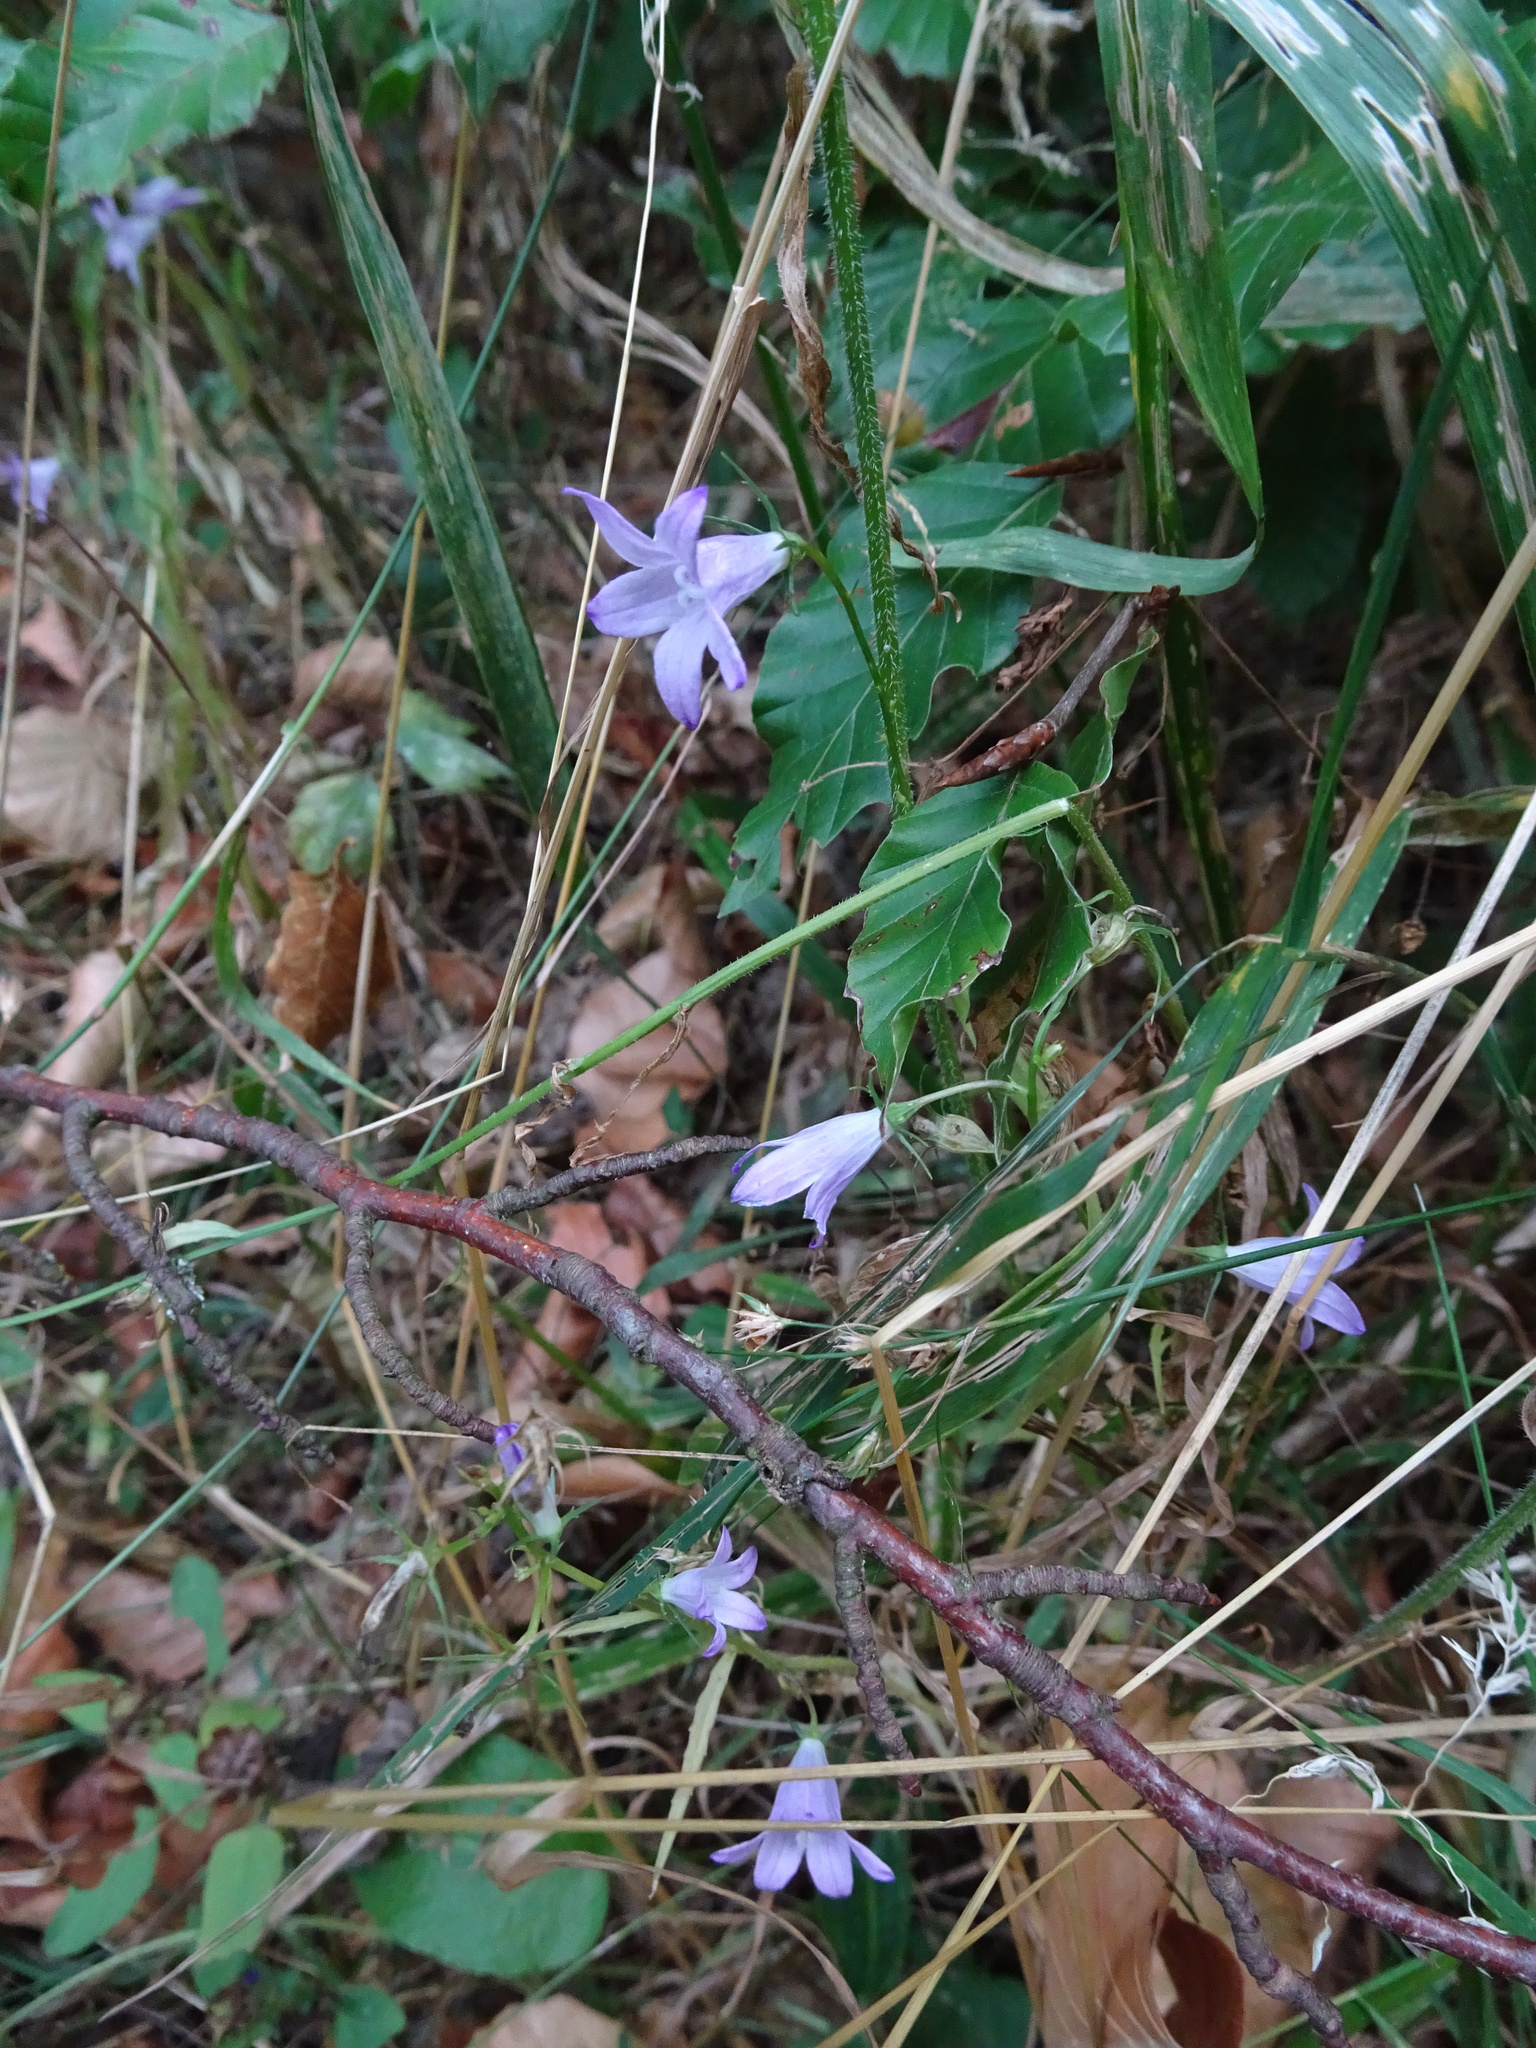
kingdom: Plantae
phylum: Tracheophyta
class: Magnoliopsida
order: Asterales
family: Campanulaceae
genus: Campanula
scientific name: Campanula rapunculus
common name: Rampion bellflower
